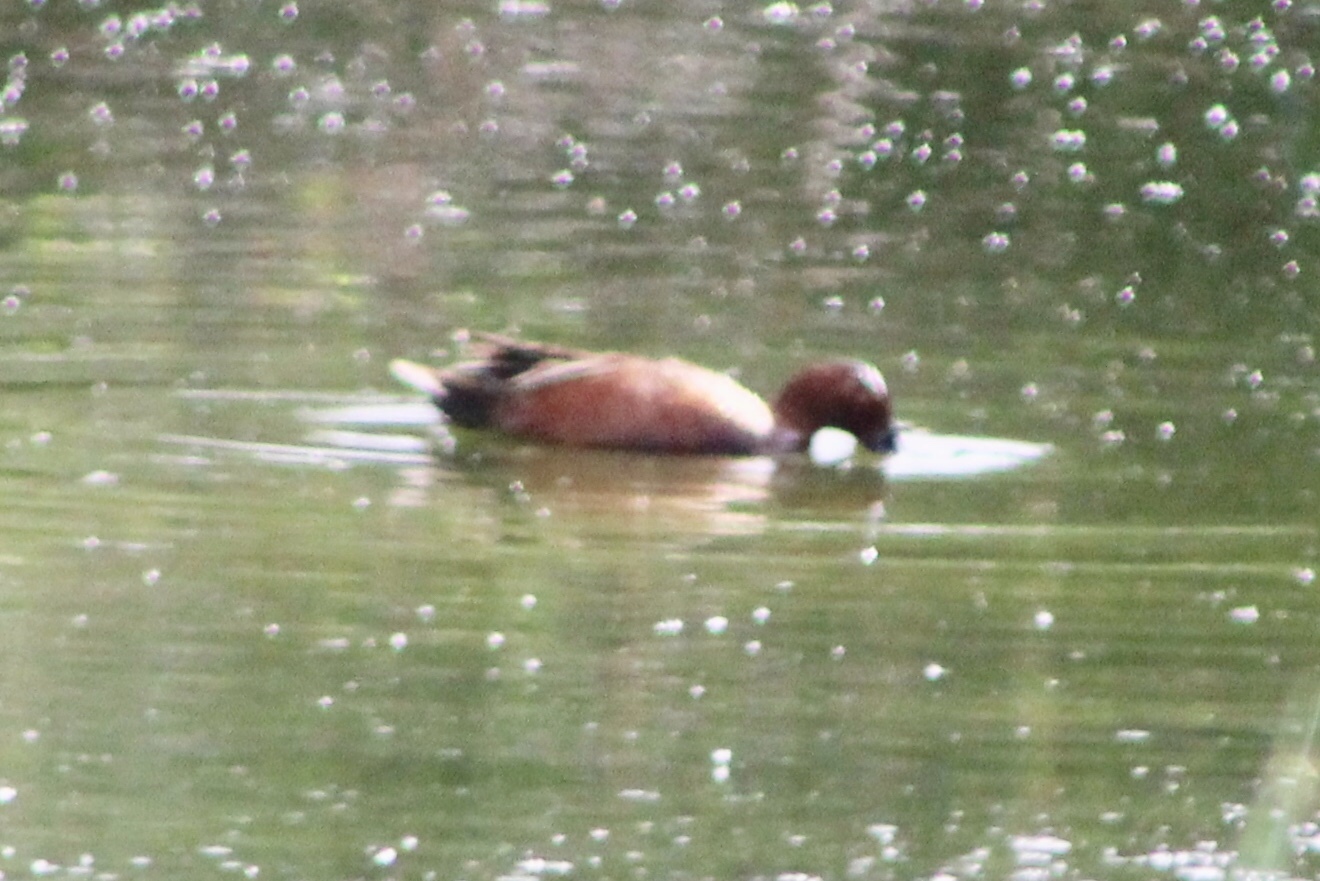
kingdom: Animalia
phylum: Chordata
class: Aves
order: Anseriformes
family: Anatidae
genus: Spatula
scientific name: Spatula cyanoptera
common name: Cinnamon teal
